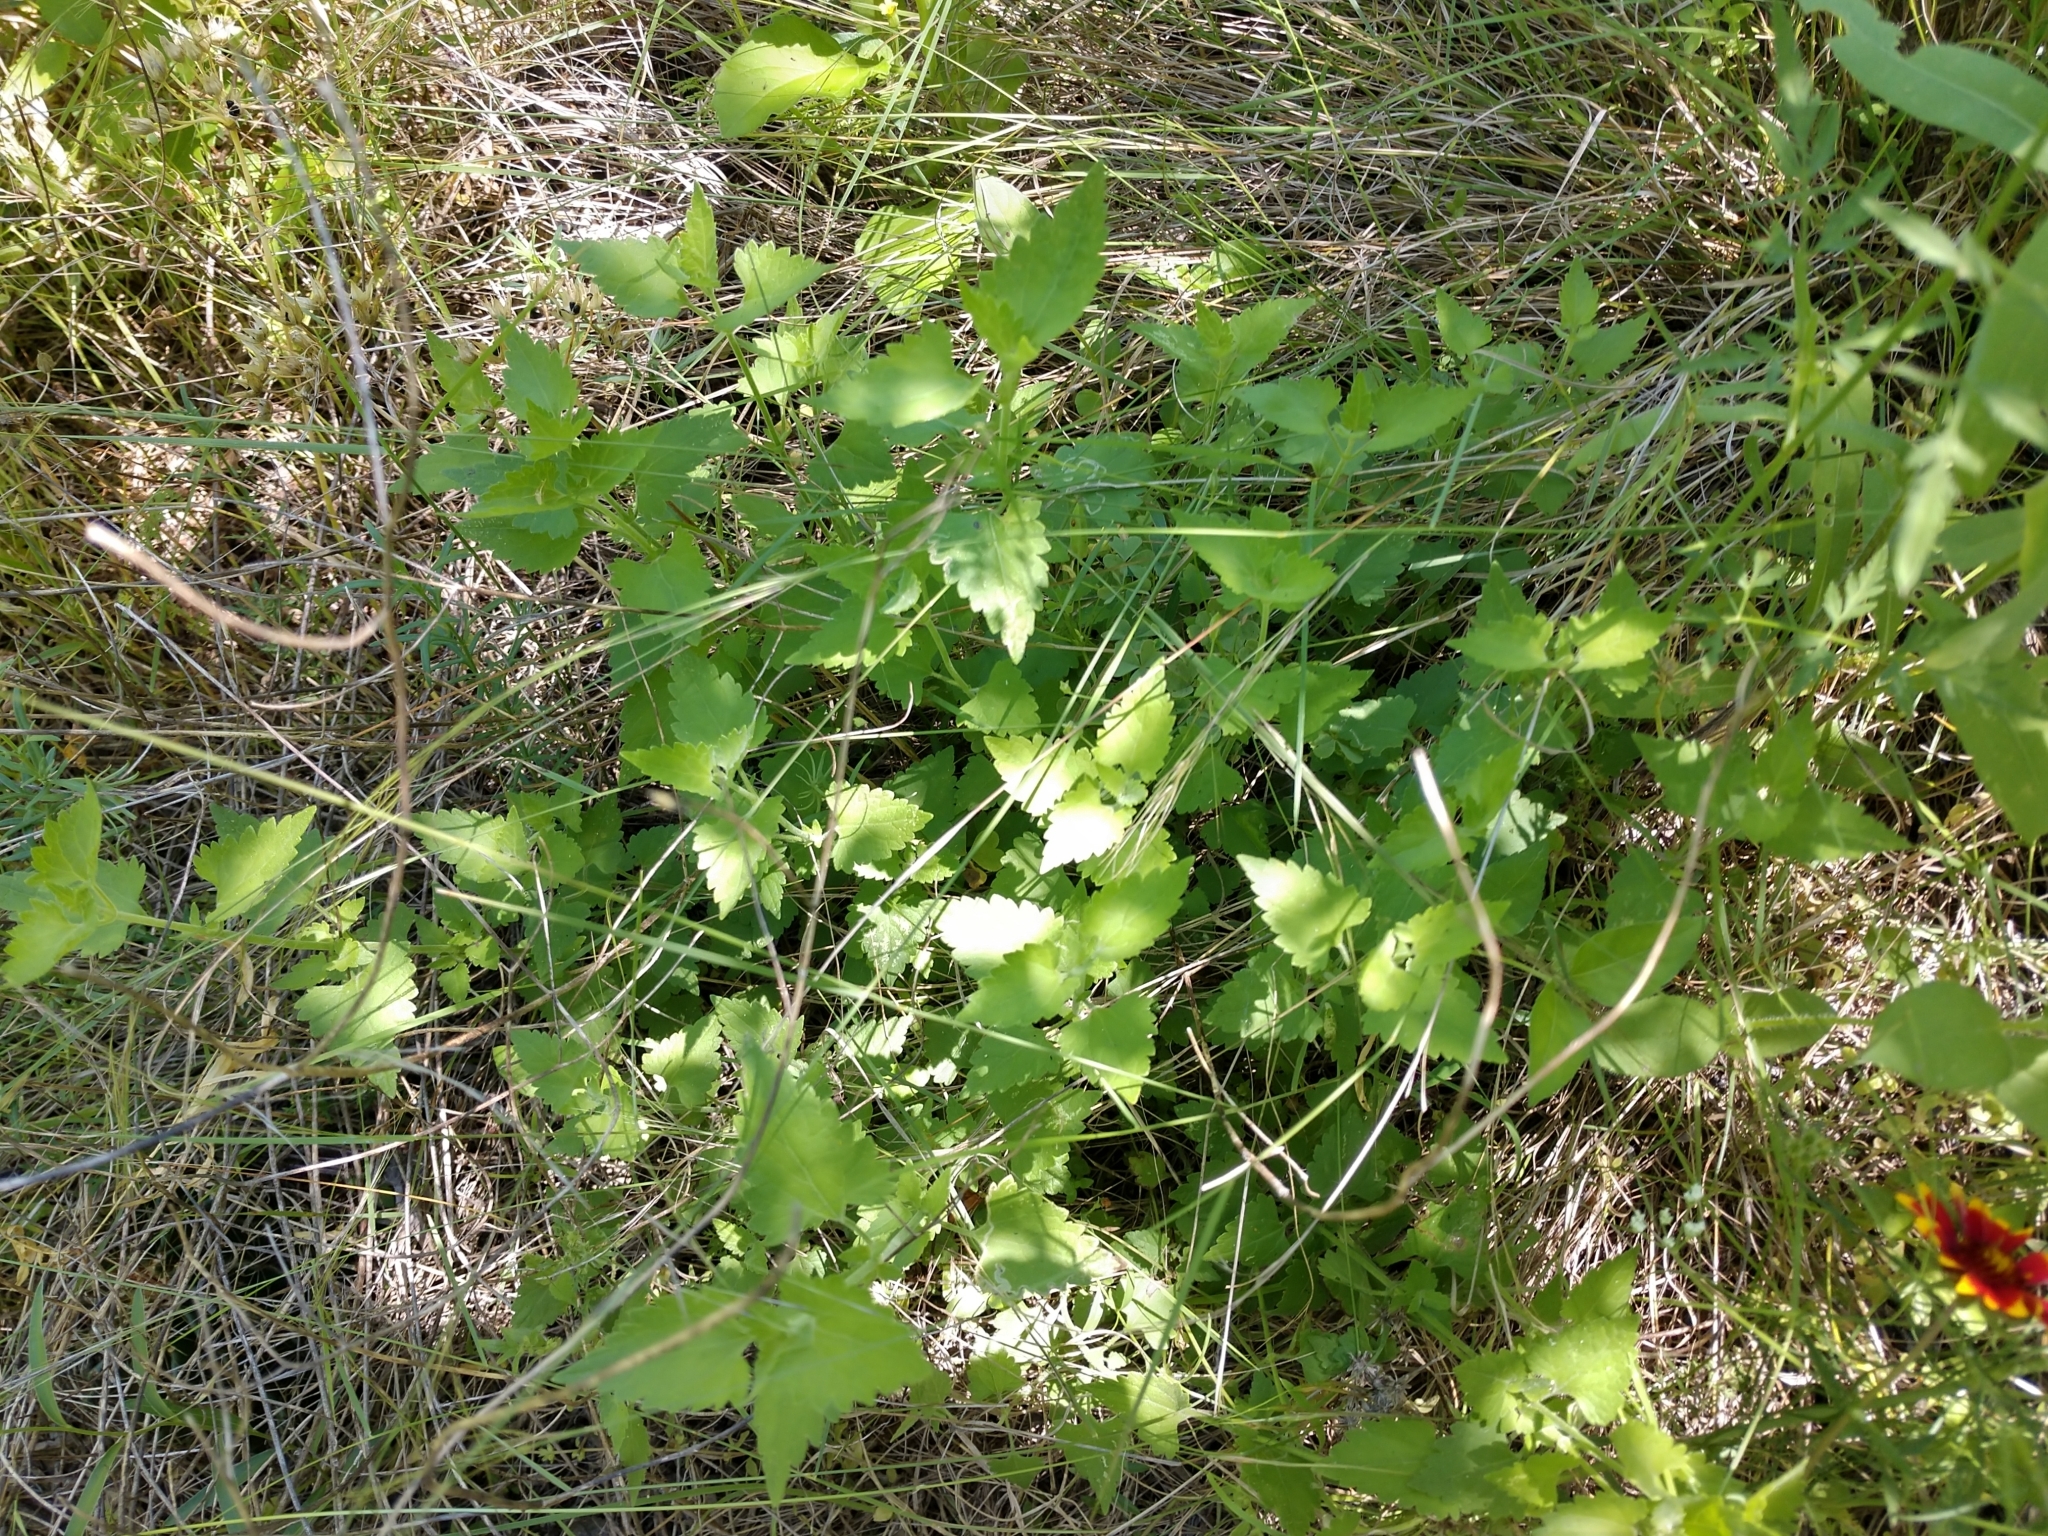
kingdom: Plantae
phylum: Tracheophyta
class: Magnoliopsida
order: Asterales
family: Asteraceae
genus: Fleischmannia
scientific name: Fleischmannia incarnata
